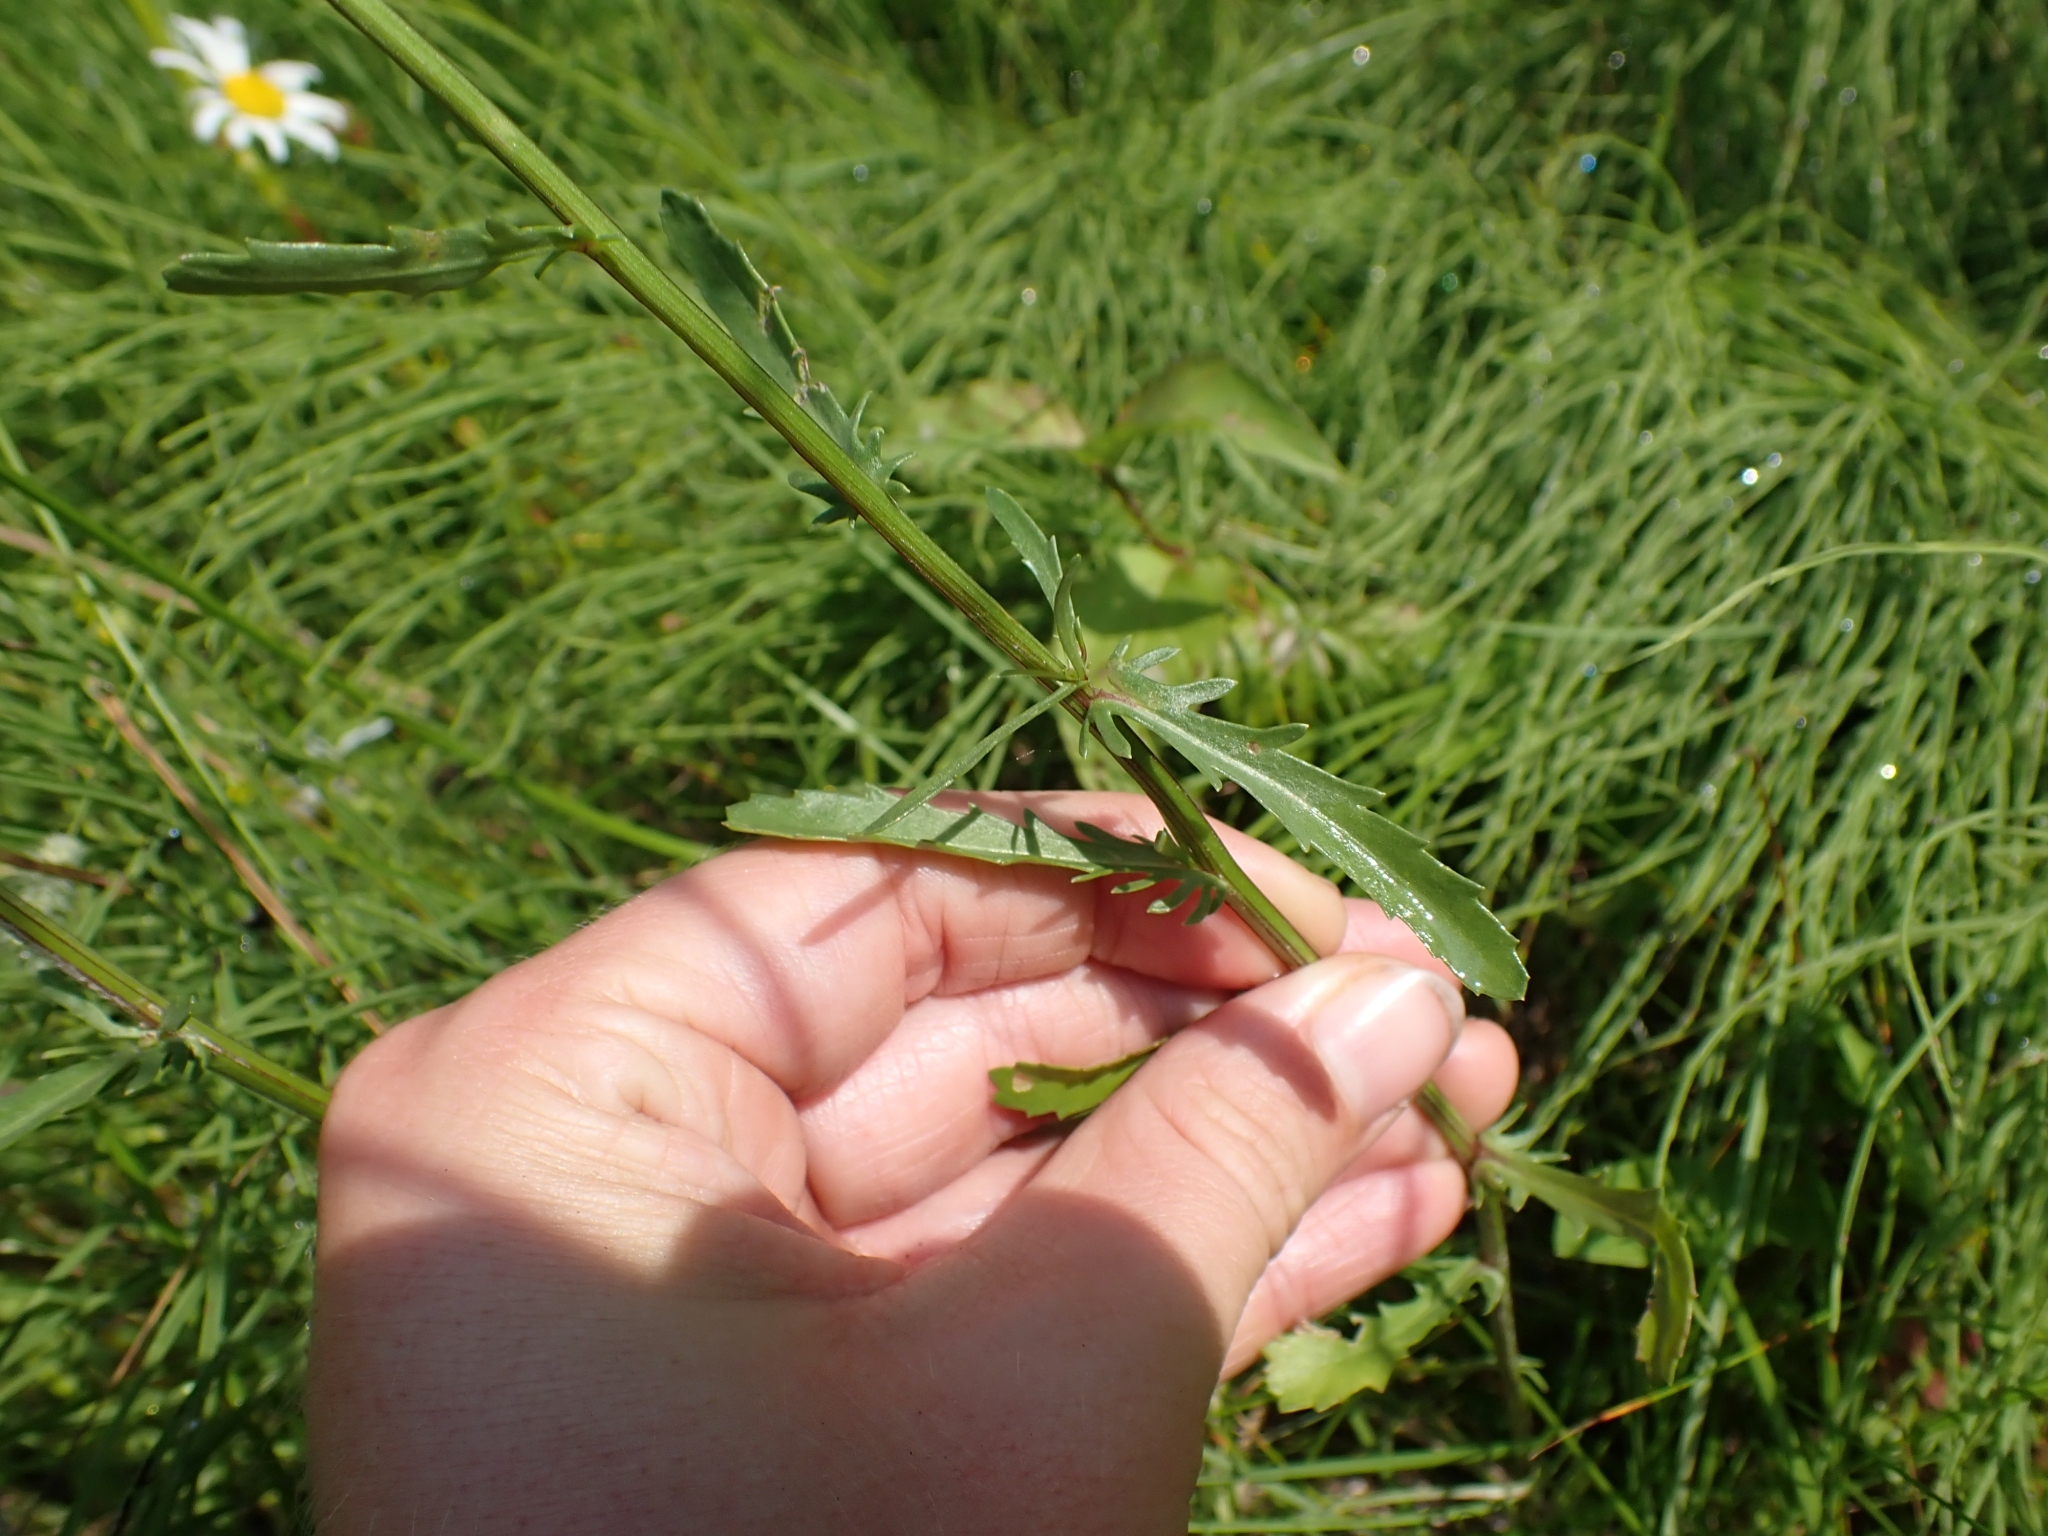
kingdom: Plantae
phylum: Tracheophyta
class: Magnoliopsida
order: Asterales
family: Asteraceae
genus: Leucanthemum
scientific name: Leucanthemum vulgare
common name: Oxeye daisy
